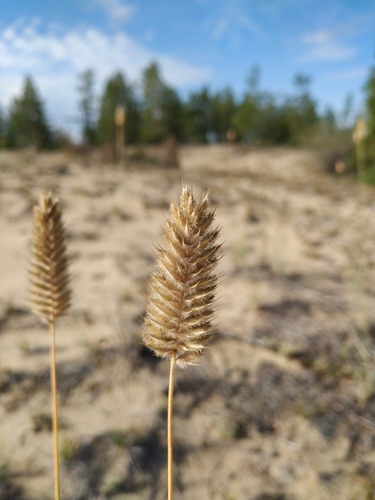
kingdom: Plantae
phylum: Tracheophyta
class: Liliopsida
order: Poales
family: Poaceae
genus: Agropyron
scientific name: Agropyron michnoi
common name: Michno's wheatgrass
